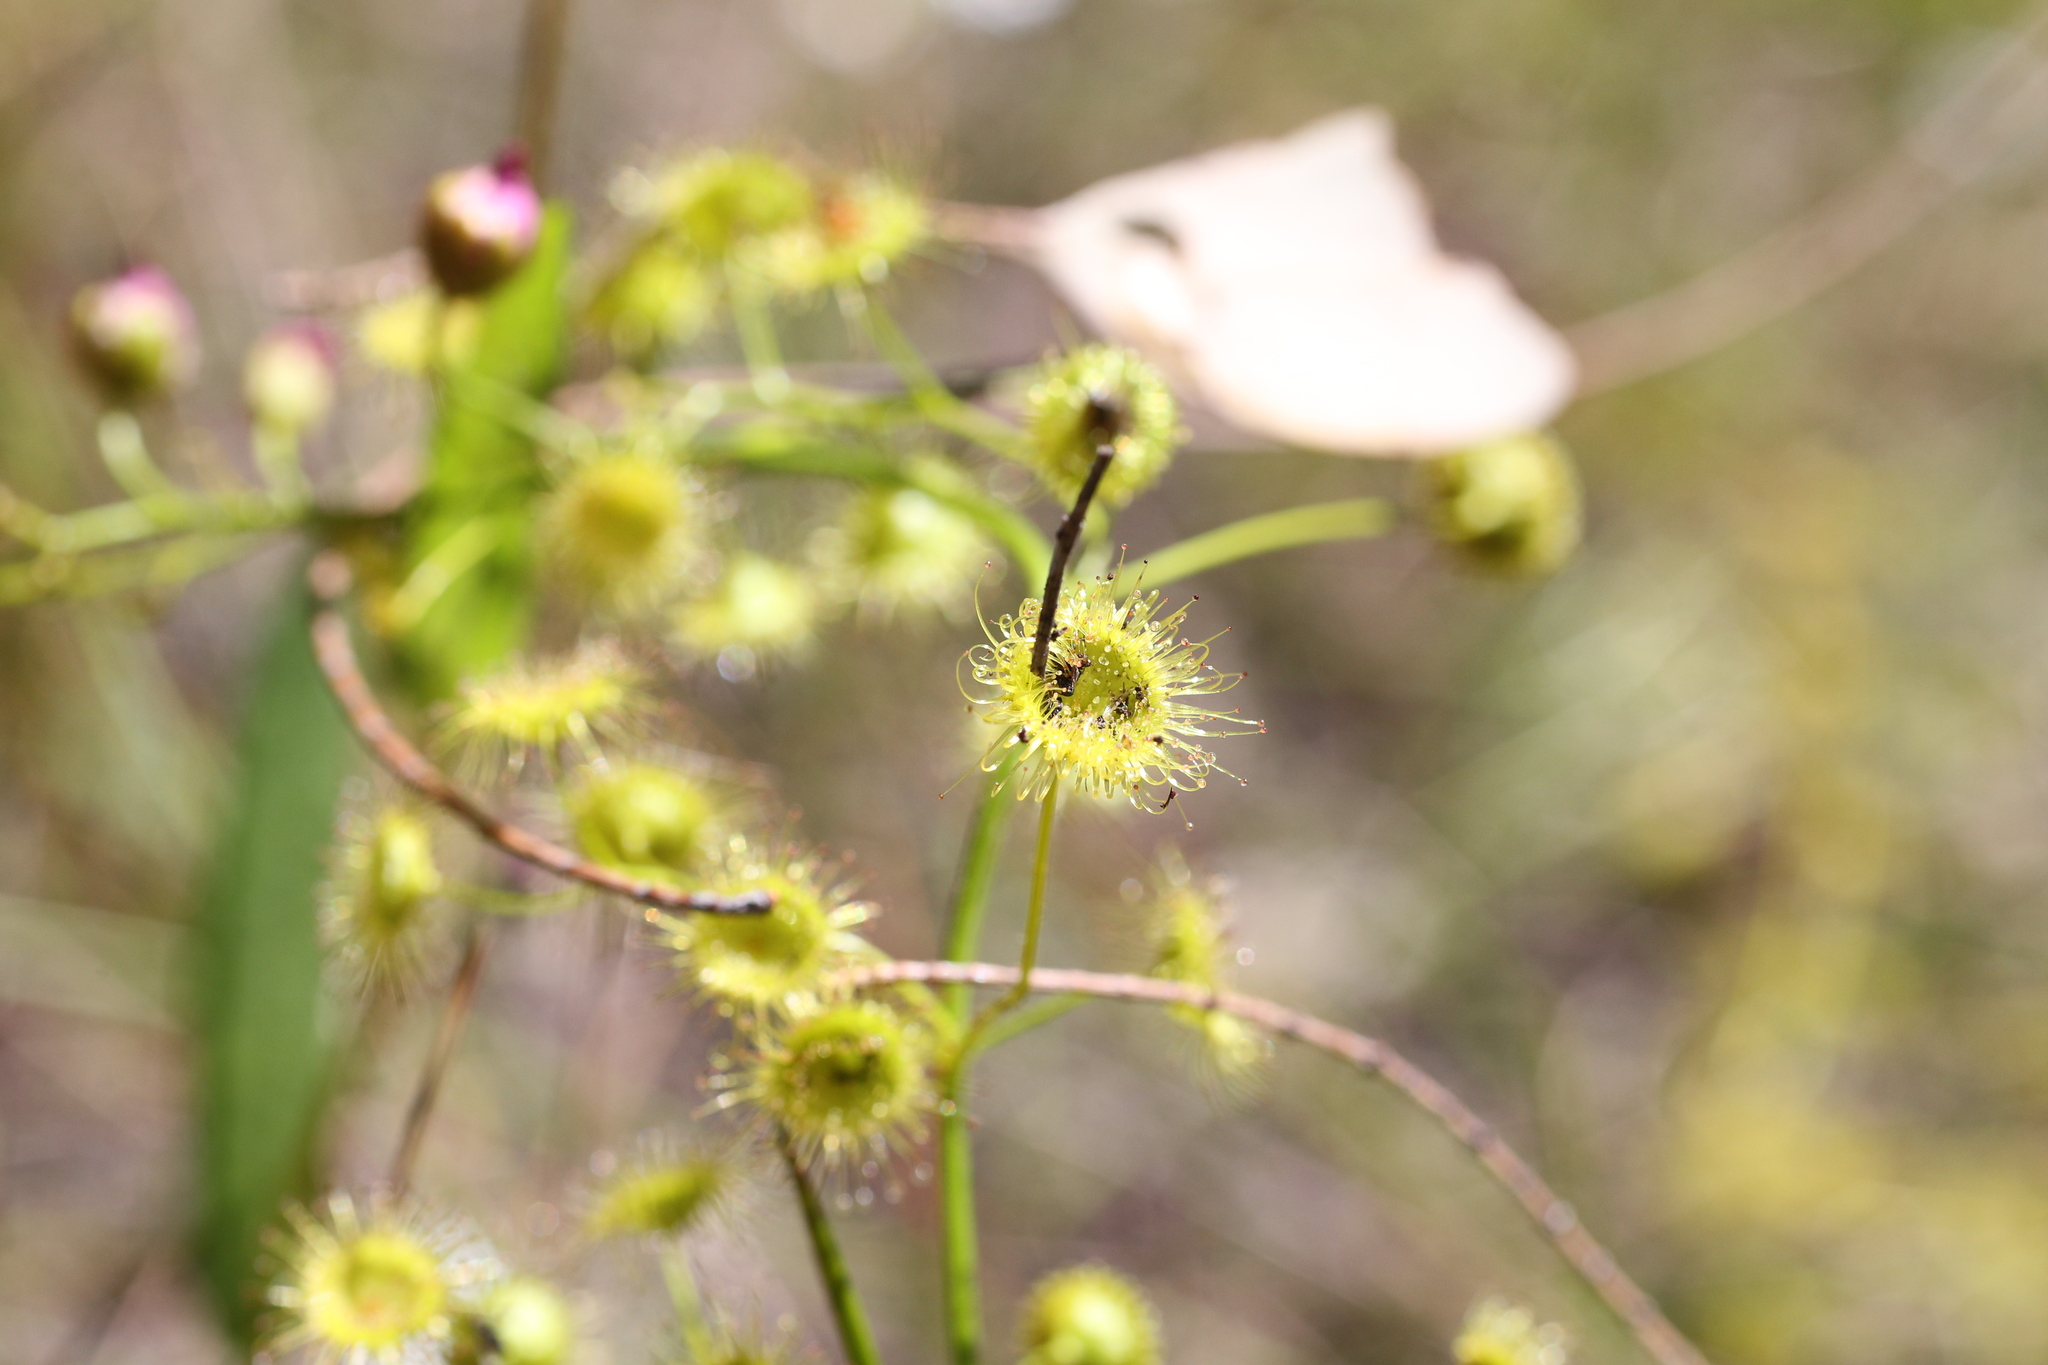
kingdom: Plantae
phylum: Tracheophyta
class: Magnoliopsida
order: Caryophyllales
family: Droseraceae
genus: Drosera
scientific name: Drosera stricticaulis
